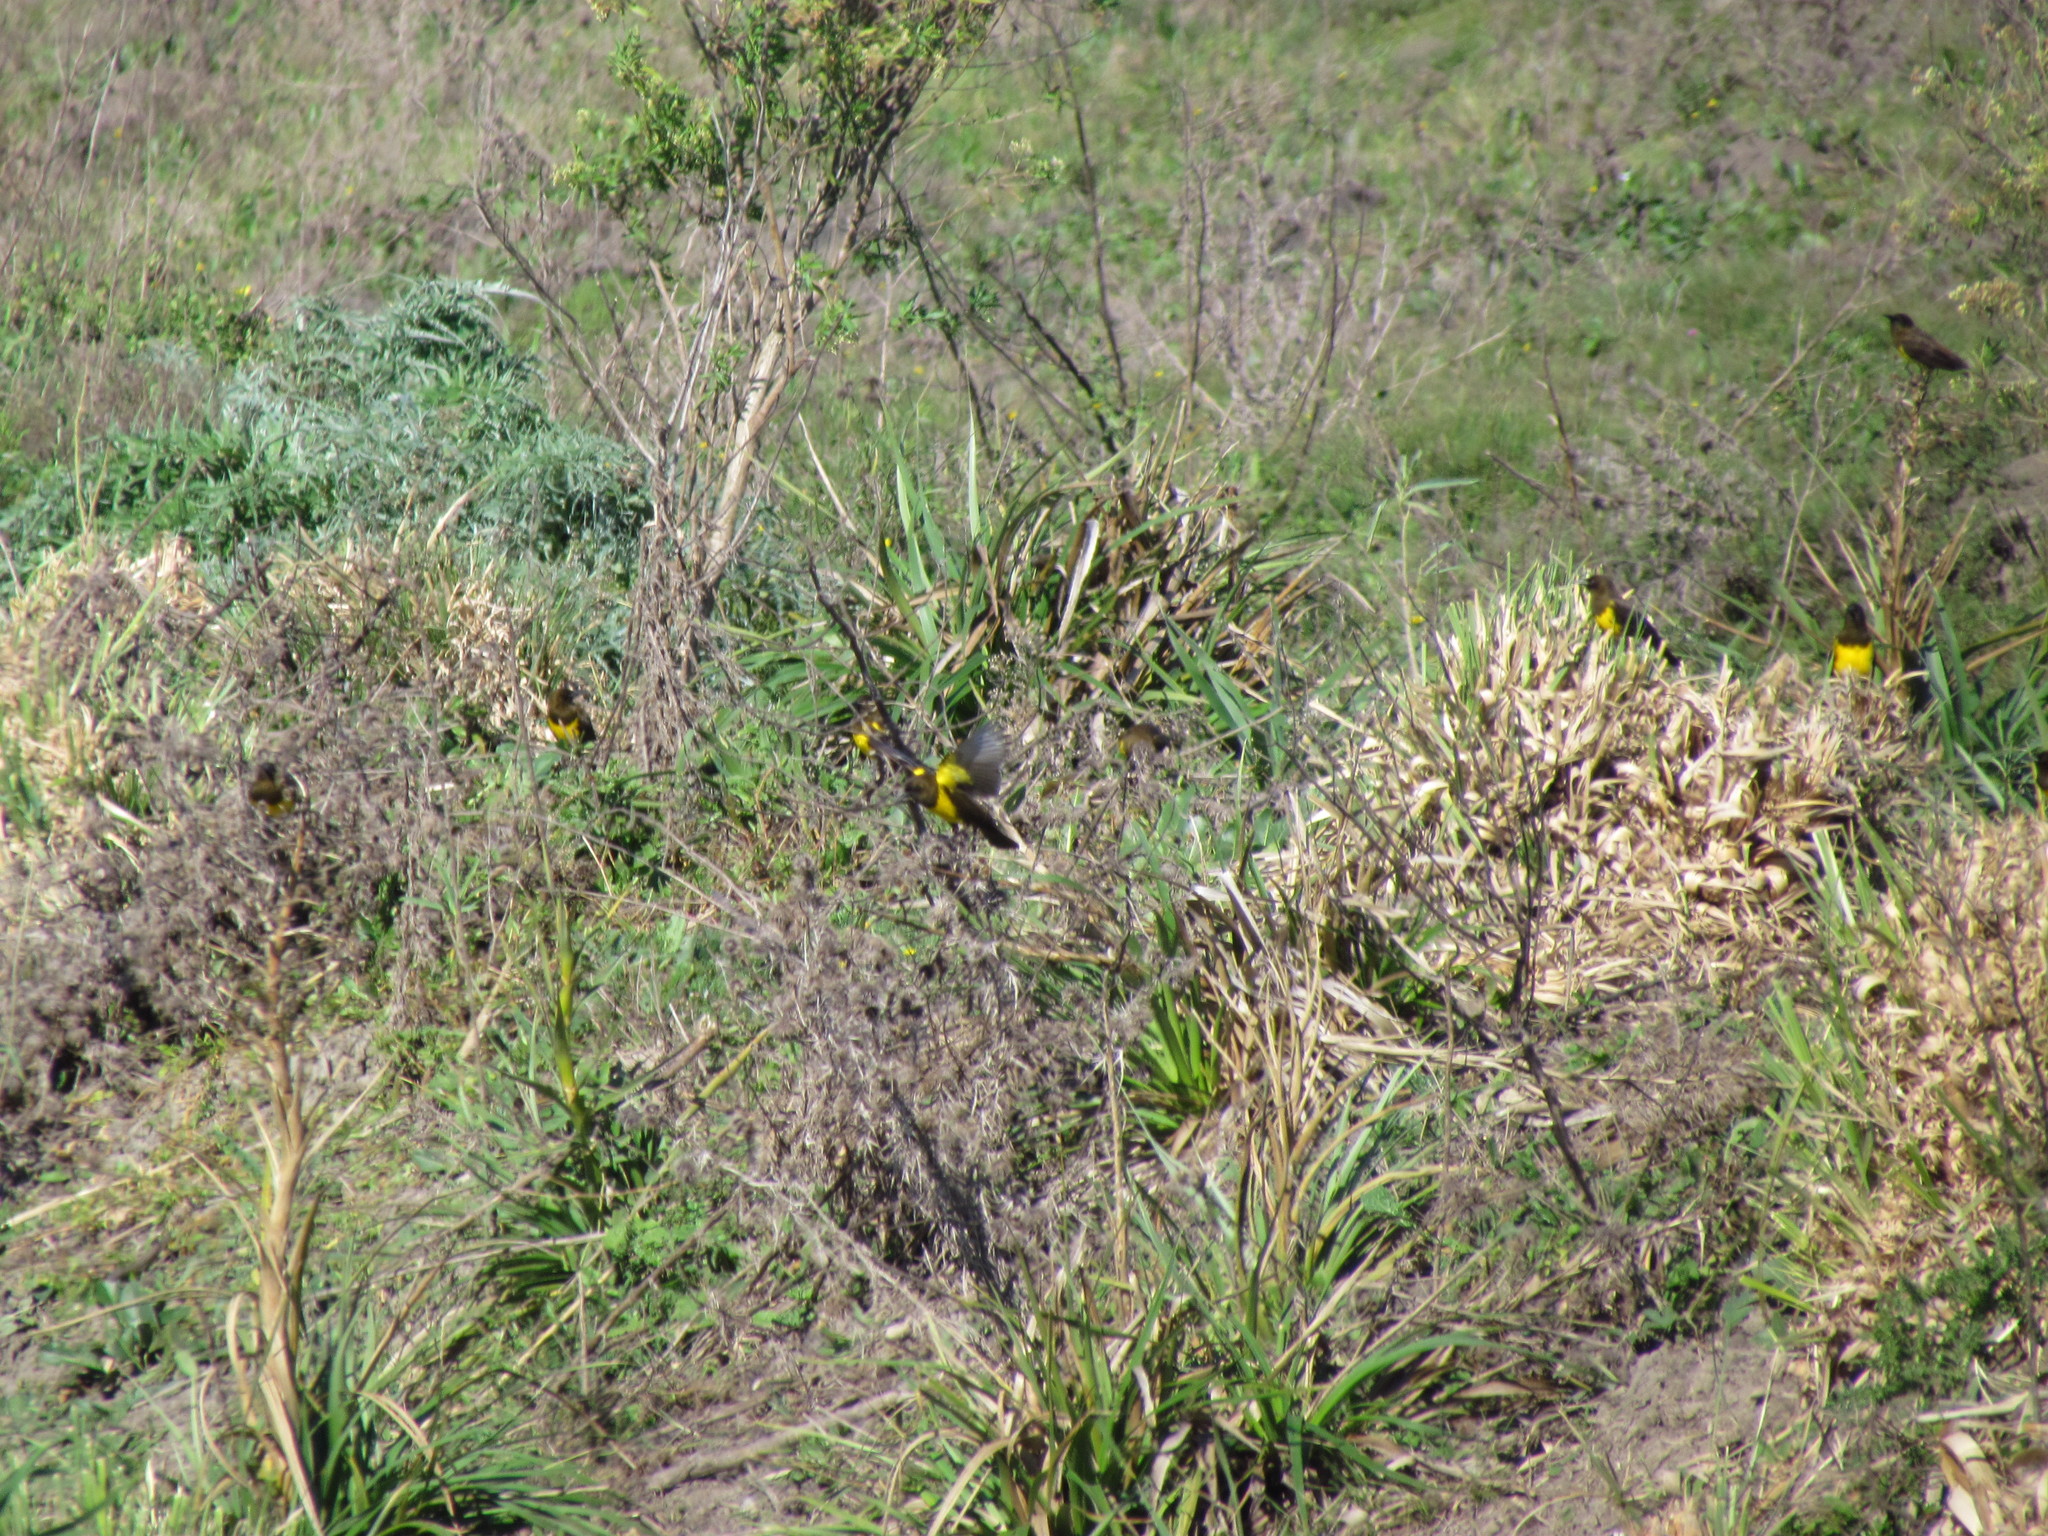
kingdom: Animalia
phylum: Chordata
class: Aves
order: Passeriformes
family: Icteridae
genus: Pseudoleistes
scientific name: Pseudoleistes virescens
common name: Brown-and-yellow marshbird
